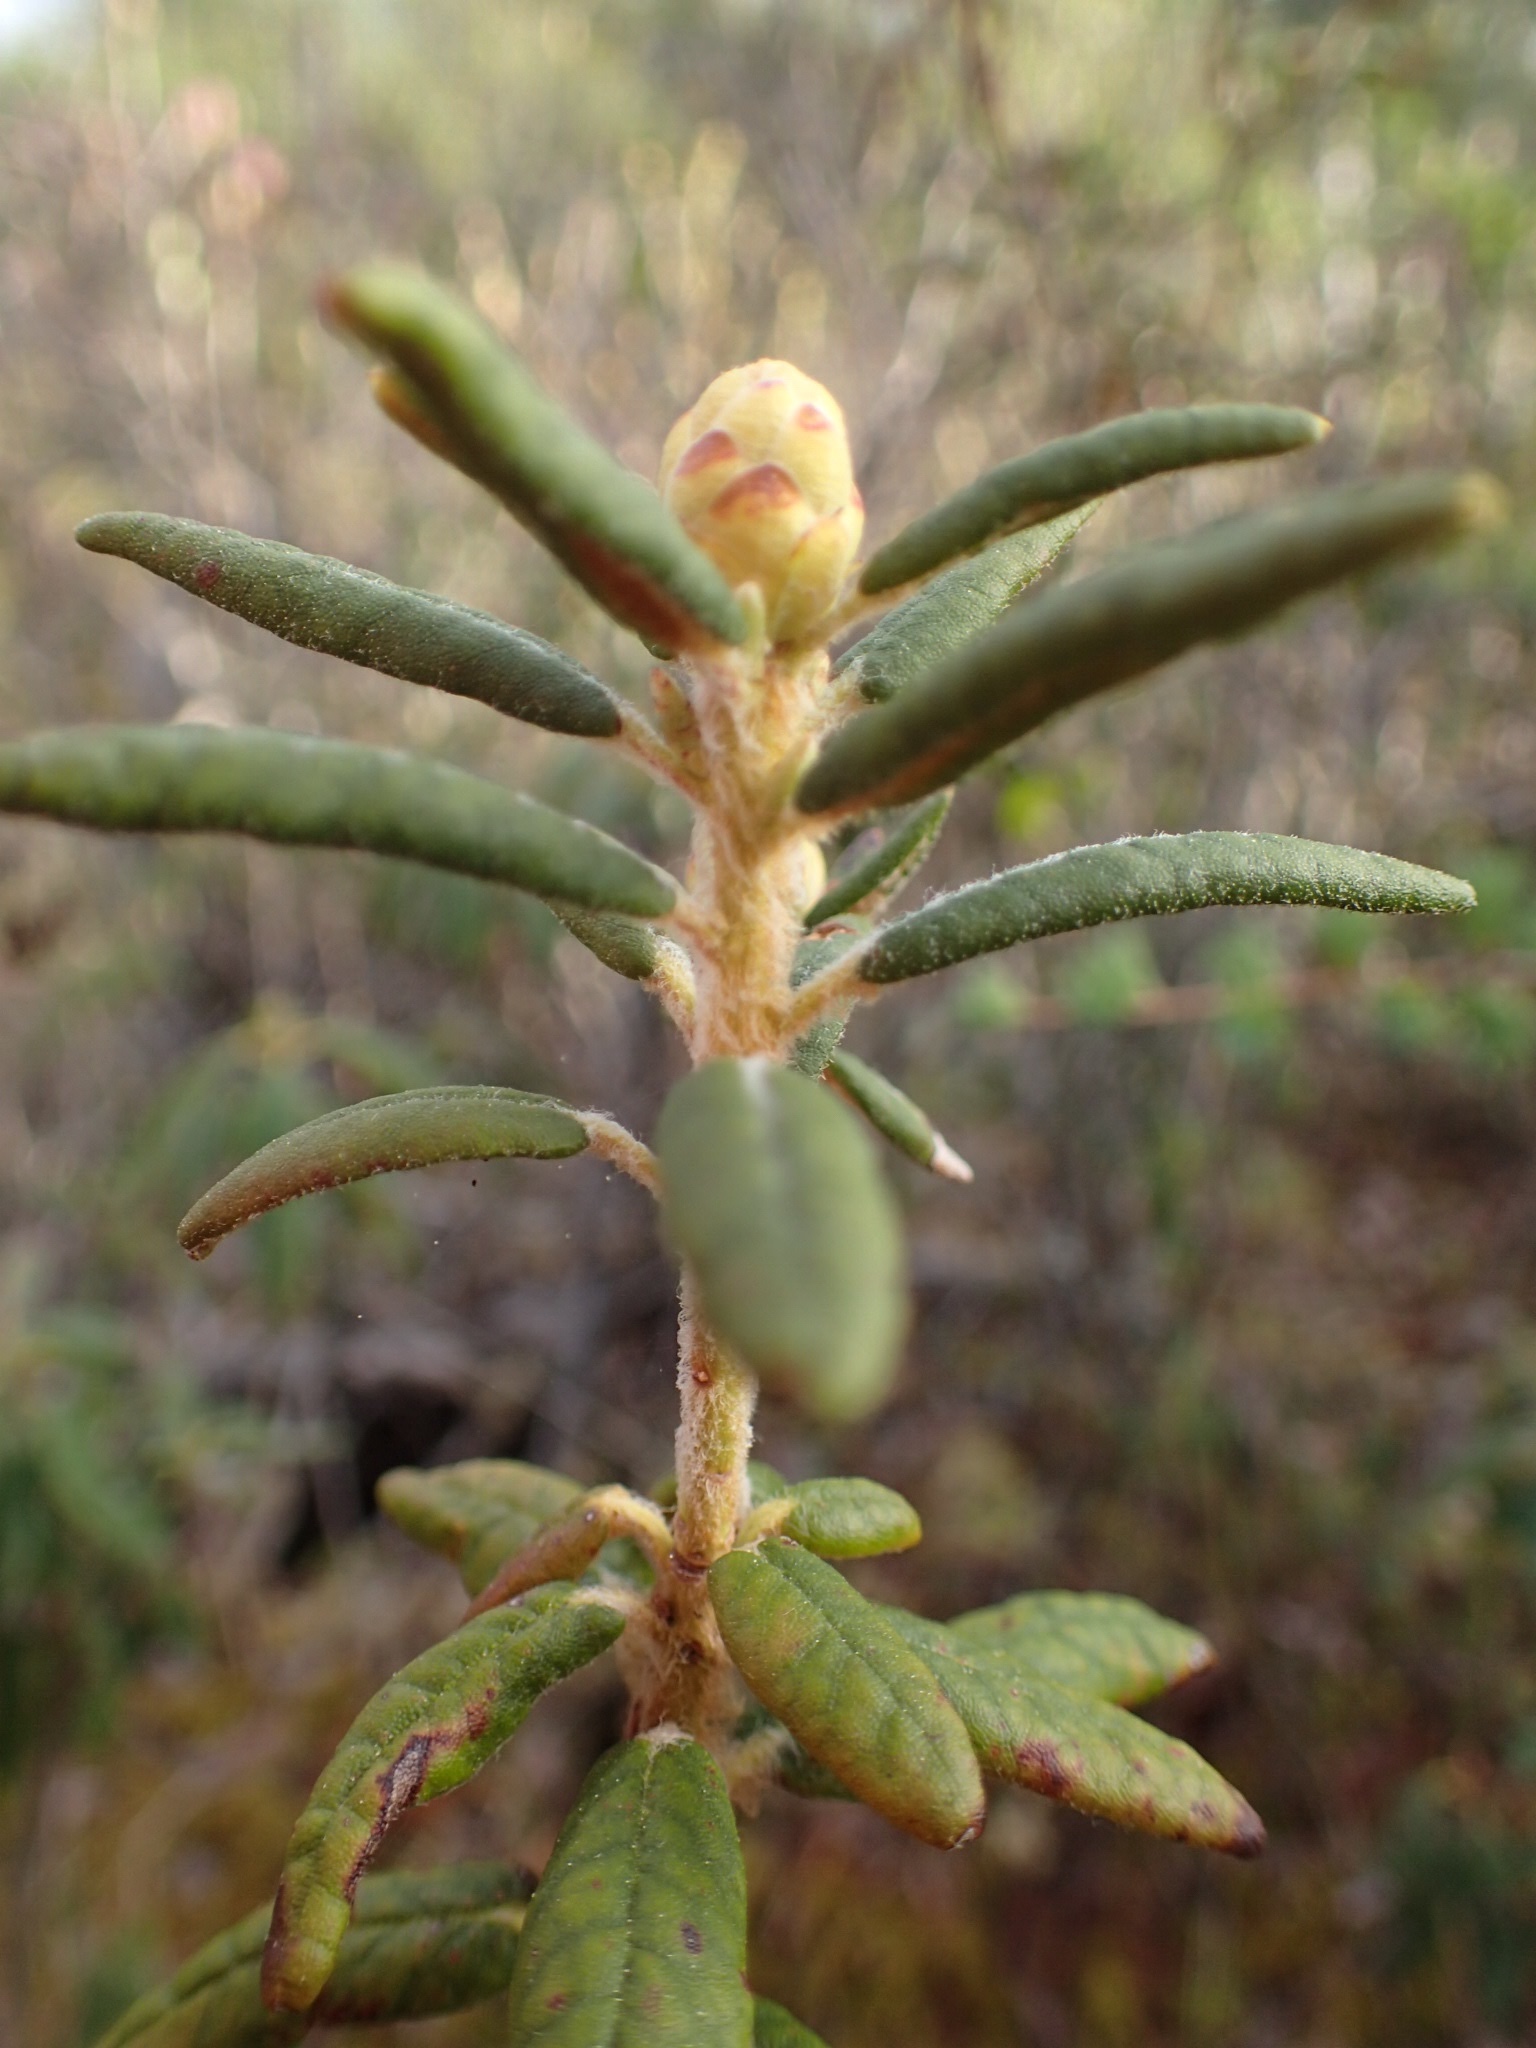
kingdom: Plantae
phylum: Tracheophyta
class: Magnoliopsida
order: Ericales
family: Ericaceae
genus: Rhododendron
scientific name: Rhododendron groenlandicum
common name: Bog labrador tea
